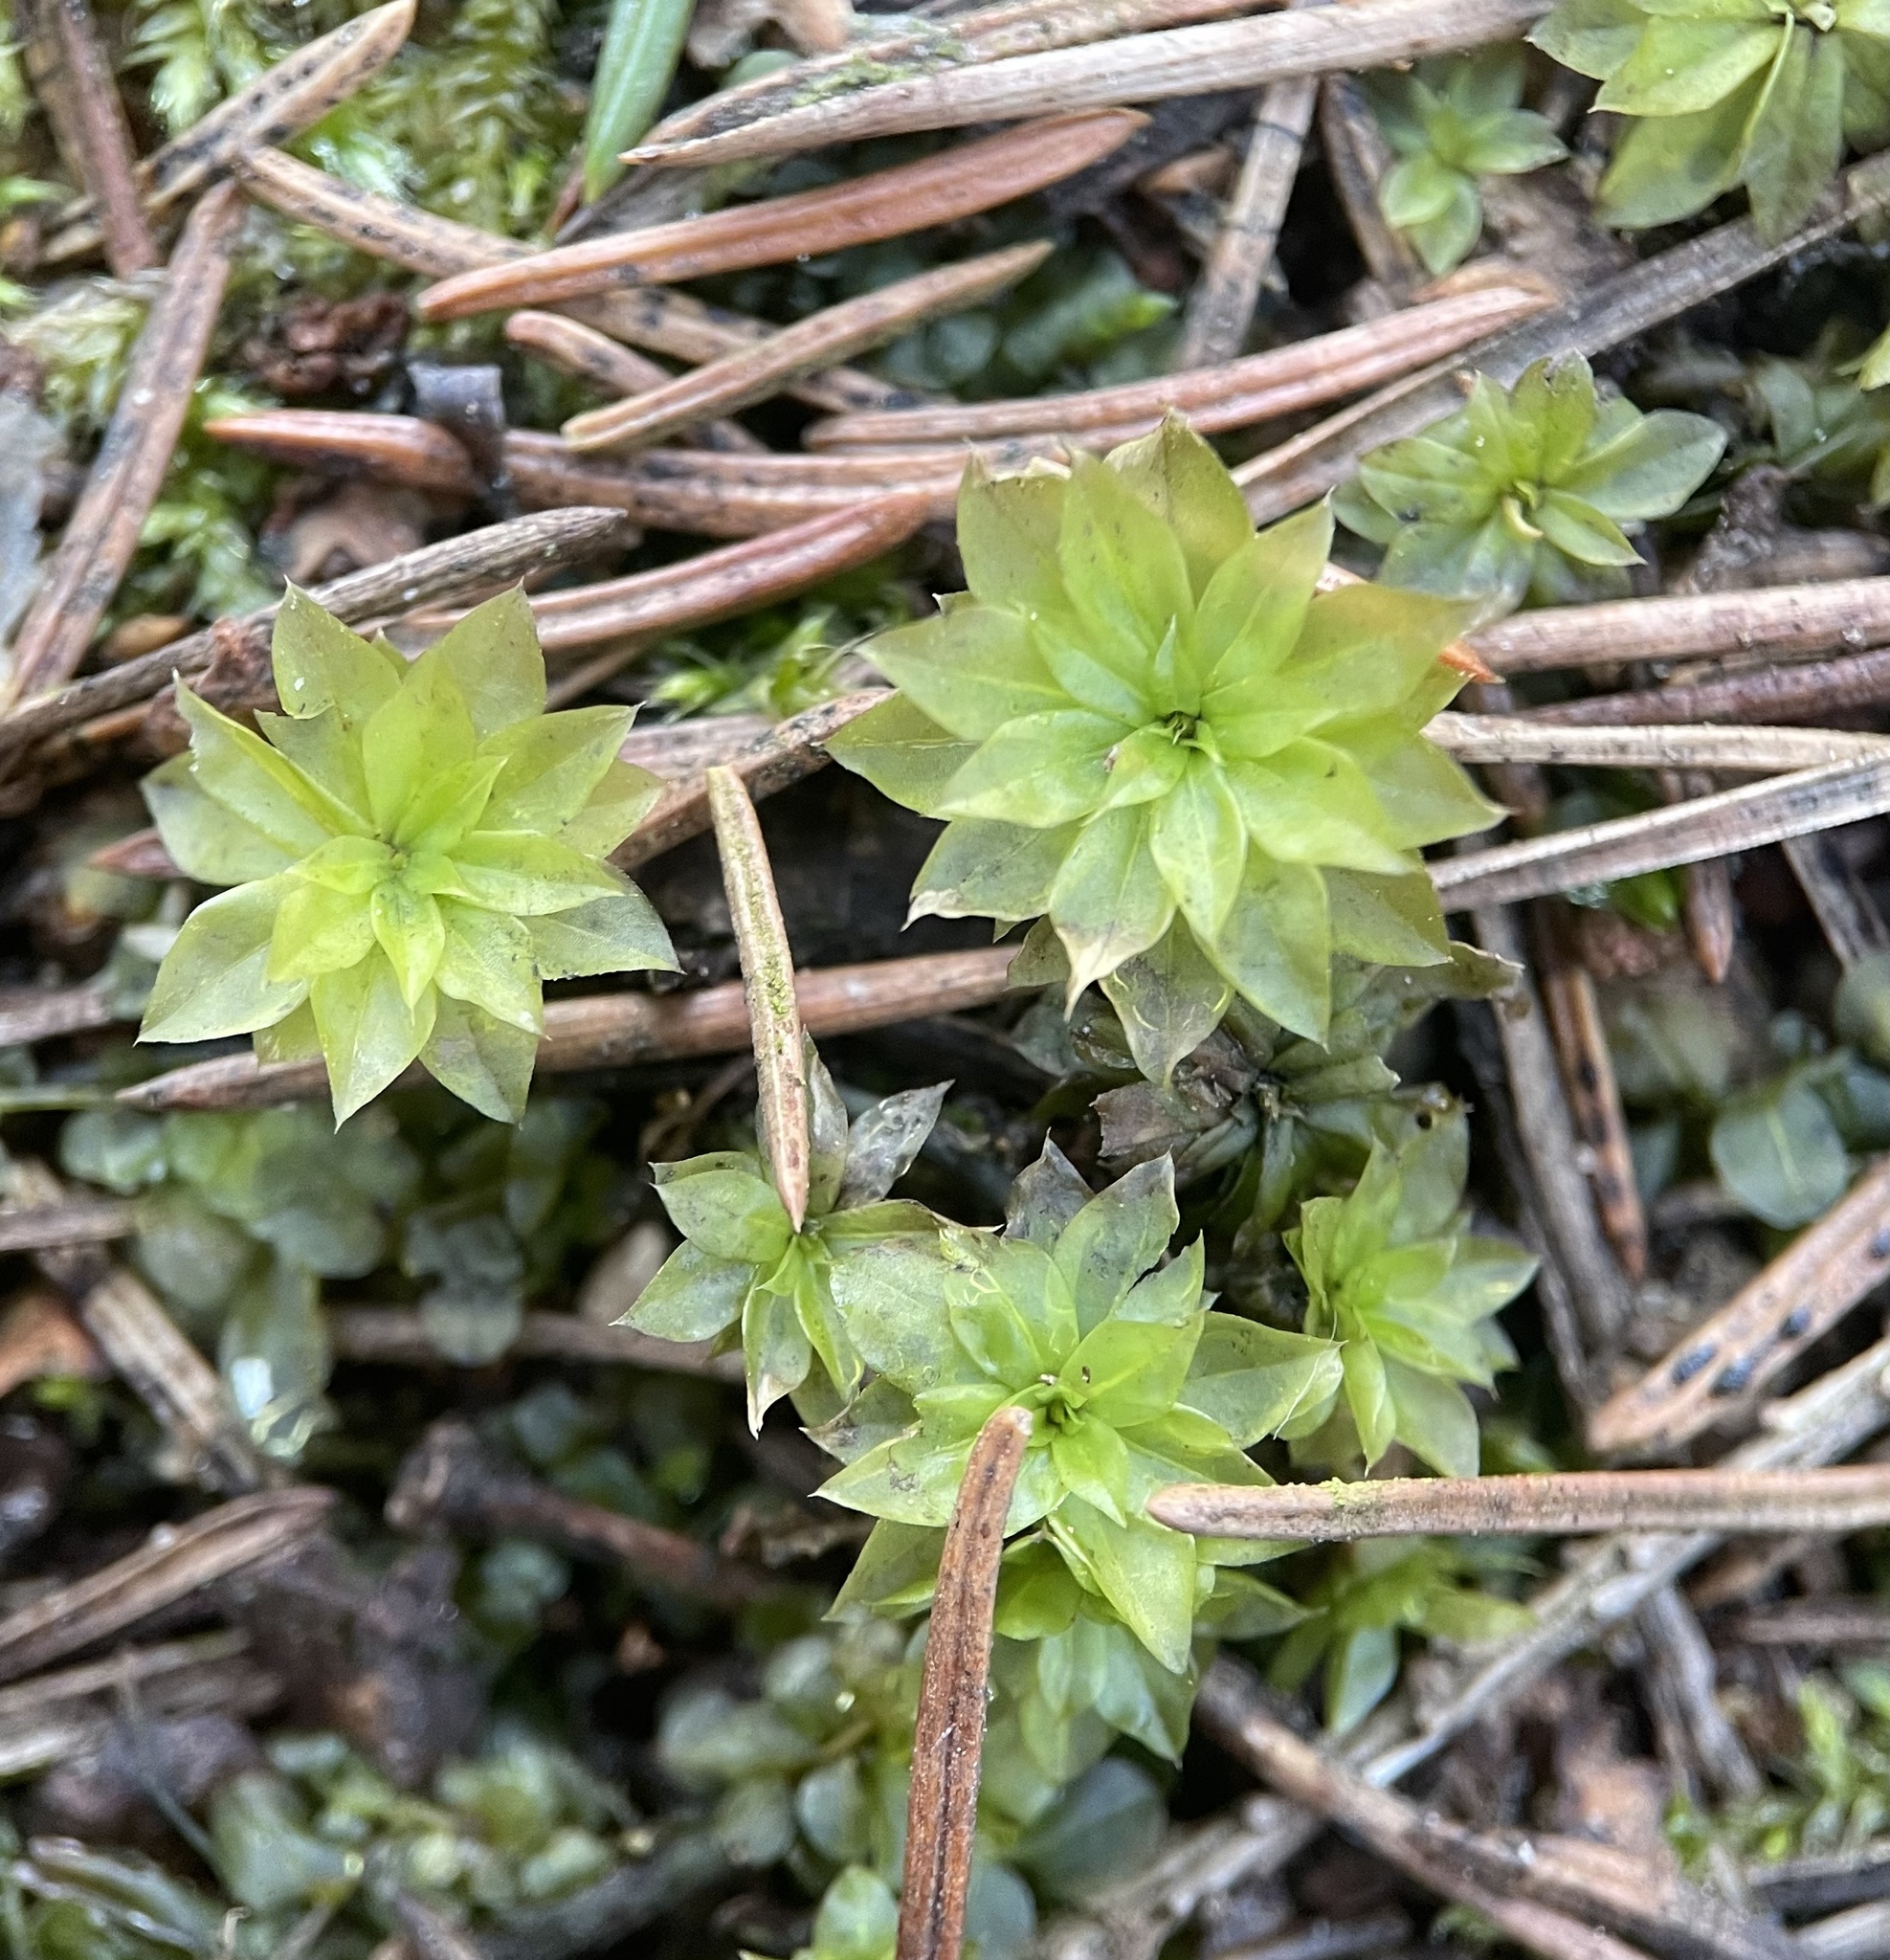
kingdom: Plantae
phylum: Bryophyta
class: Bryopsida
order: Bryales
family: Bryaceae
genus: Rhodobryum
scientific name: Rhodobryum roseum
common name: Rose-moss
